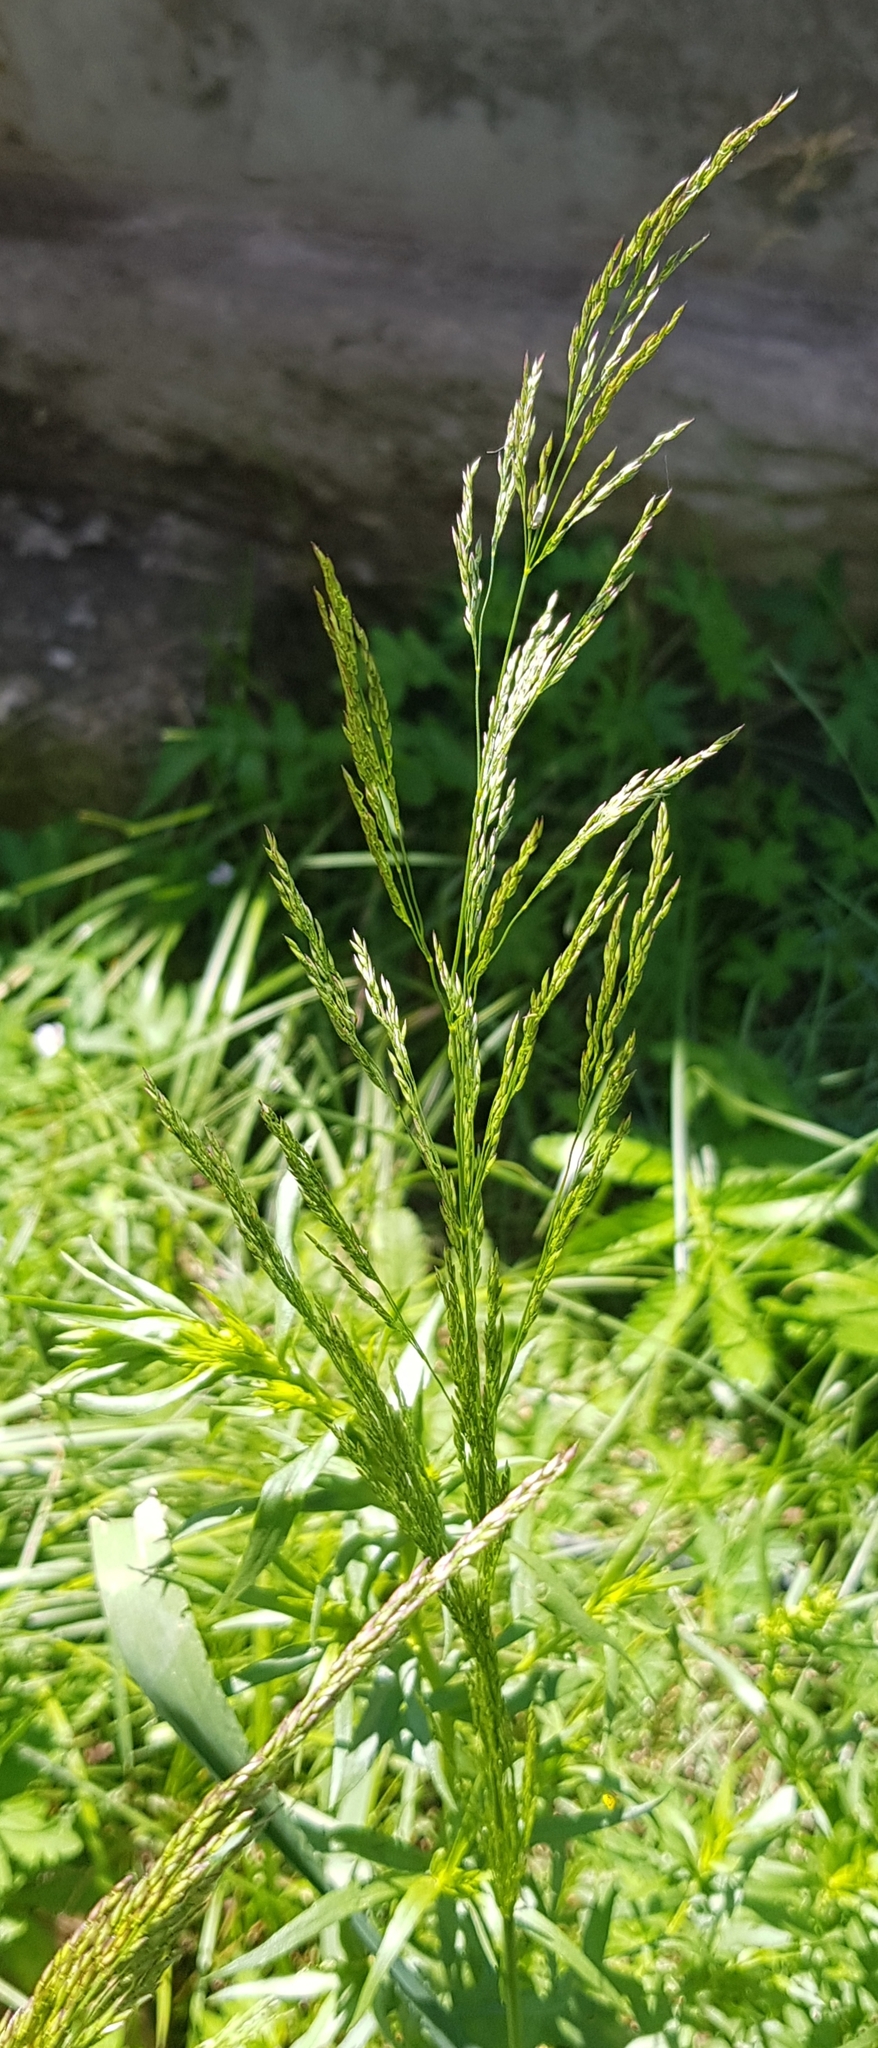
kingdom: Plantae
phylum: Tracheophyta
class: Liliopsida
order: Poales
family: Poaceae
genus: Agrostis
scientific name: Agrostis gigantea
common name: Black bent
